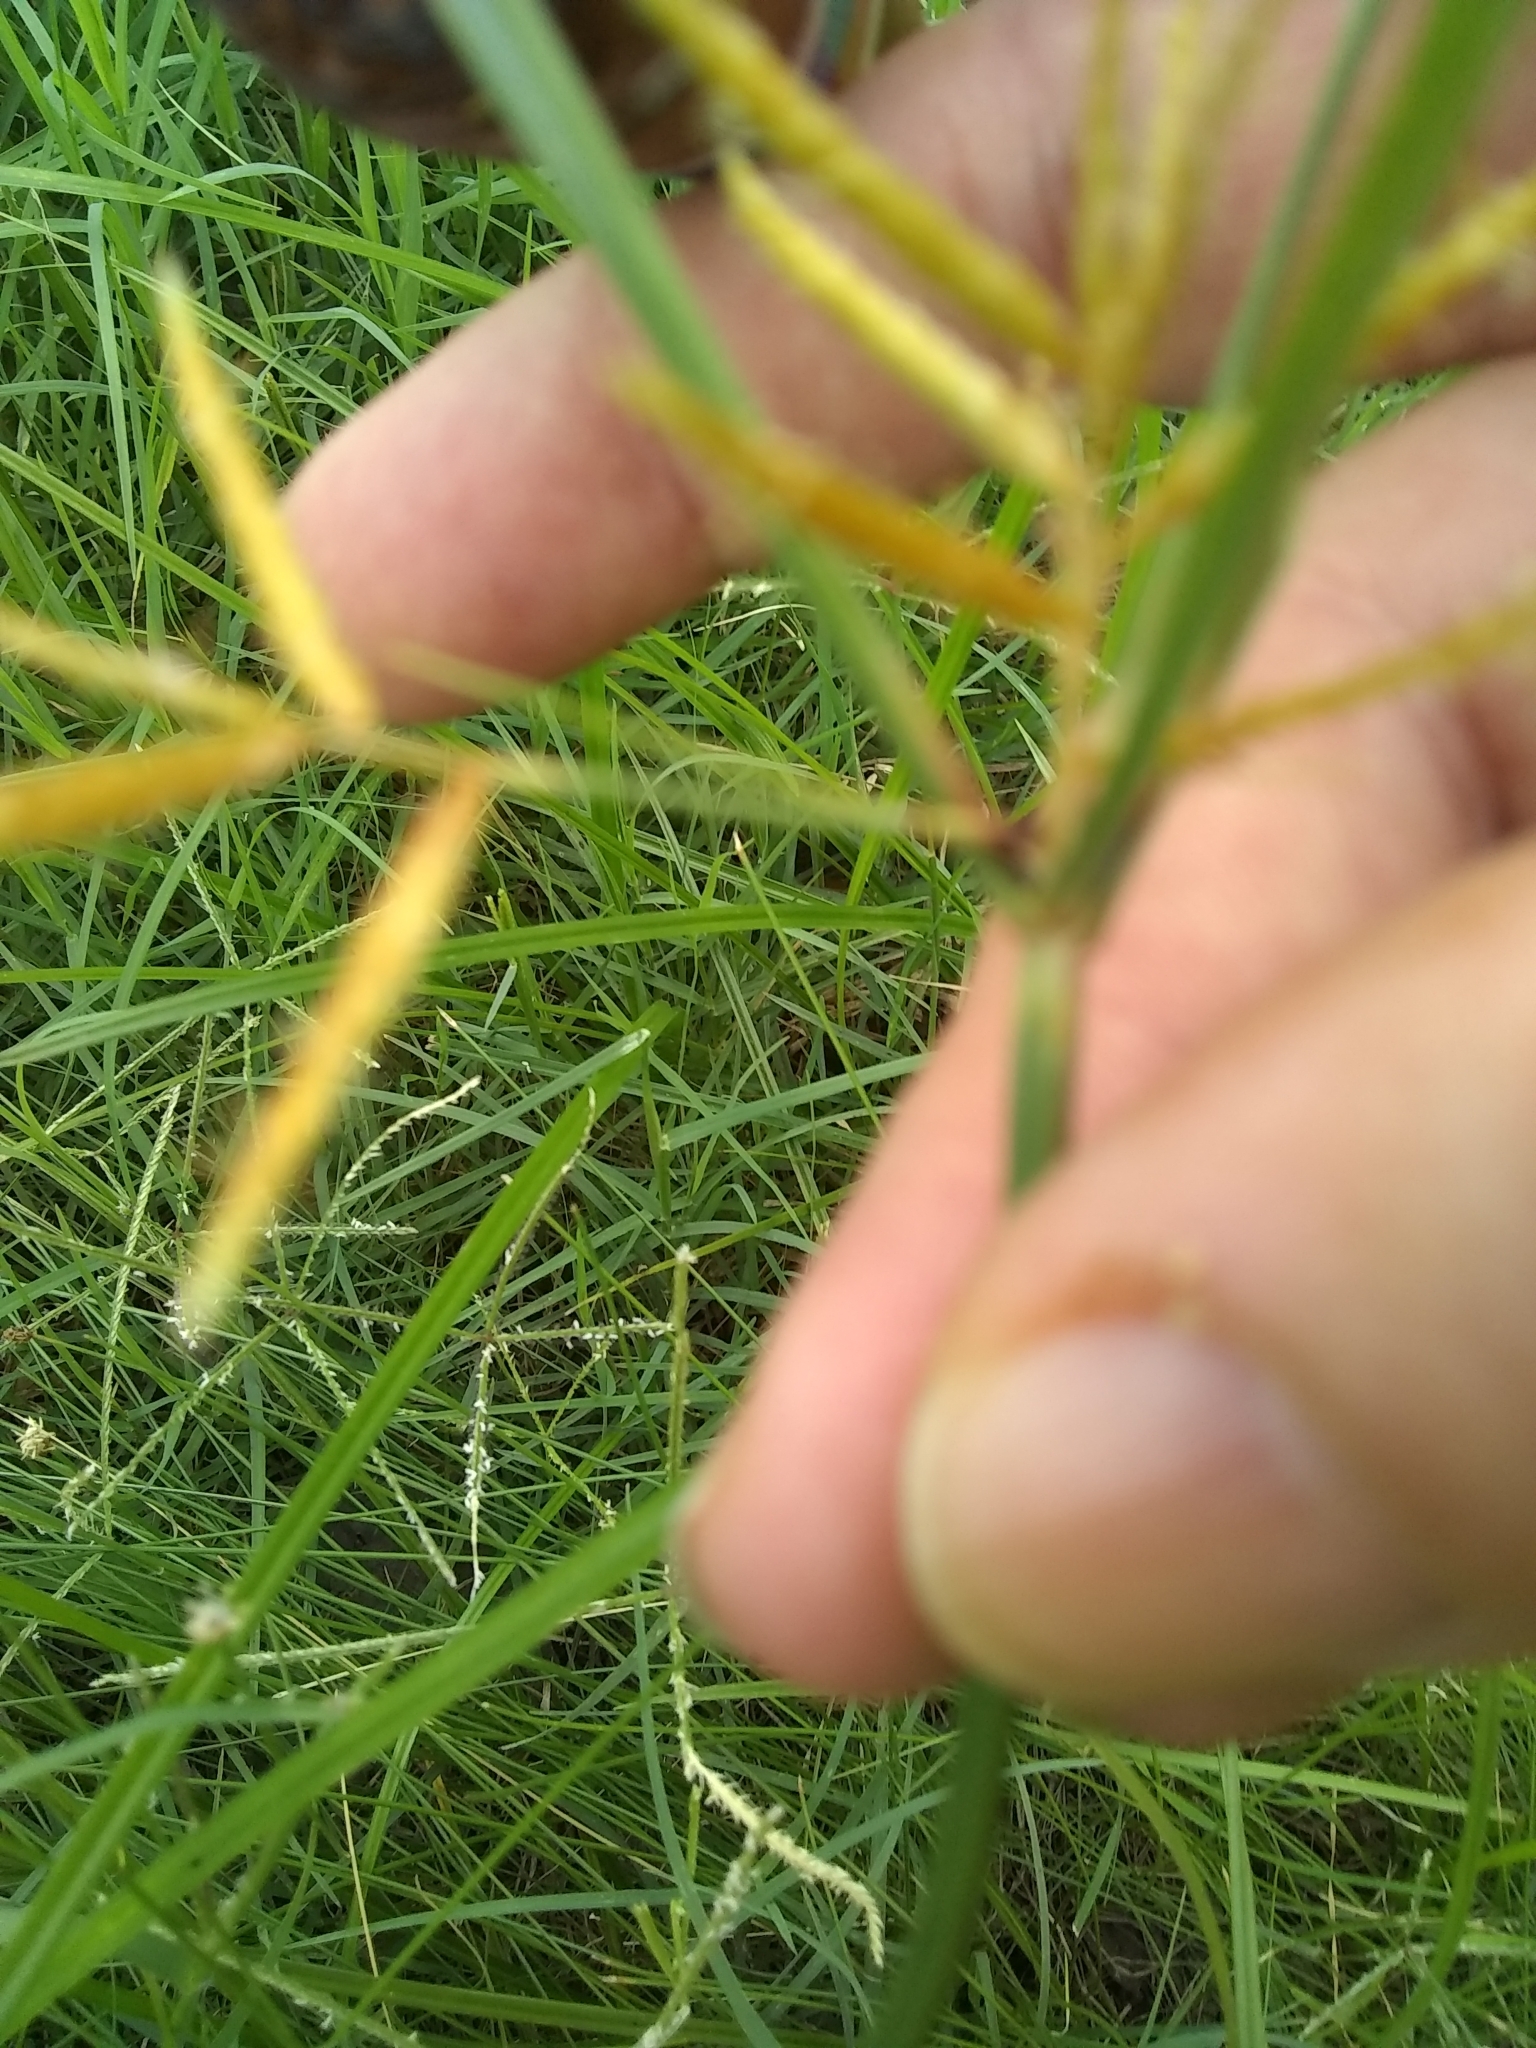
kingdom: Plantae
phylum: Tracheophyta
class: Liliopsida
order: Poales
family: Cyperaceae
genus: Cyperus
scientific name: Cyperus esculentus
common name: Yellow nutsedge
